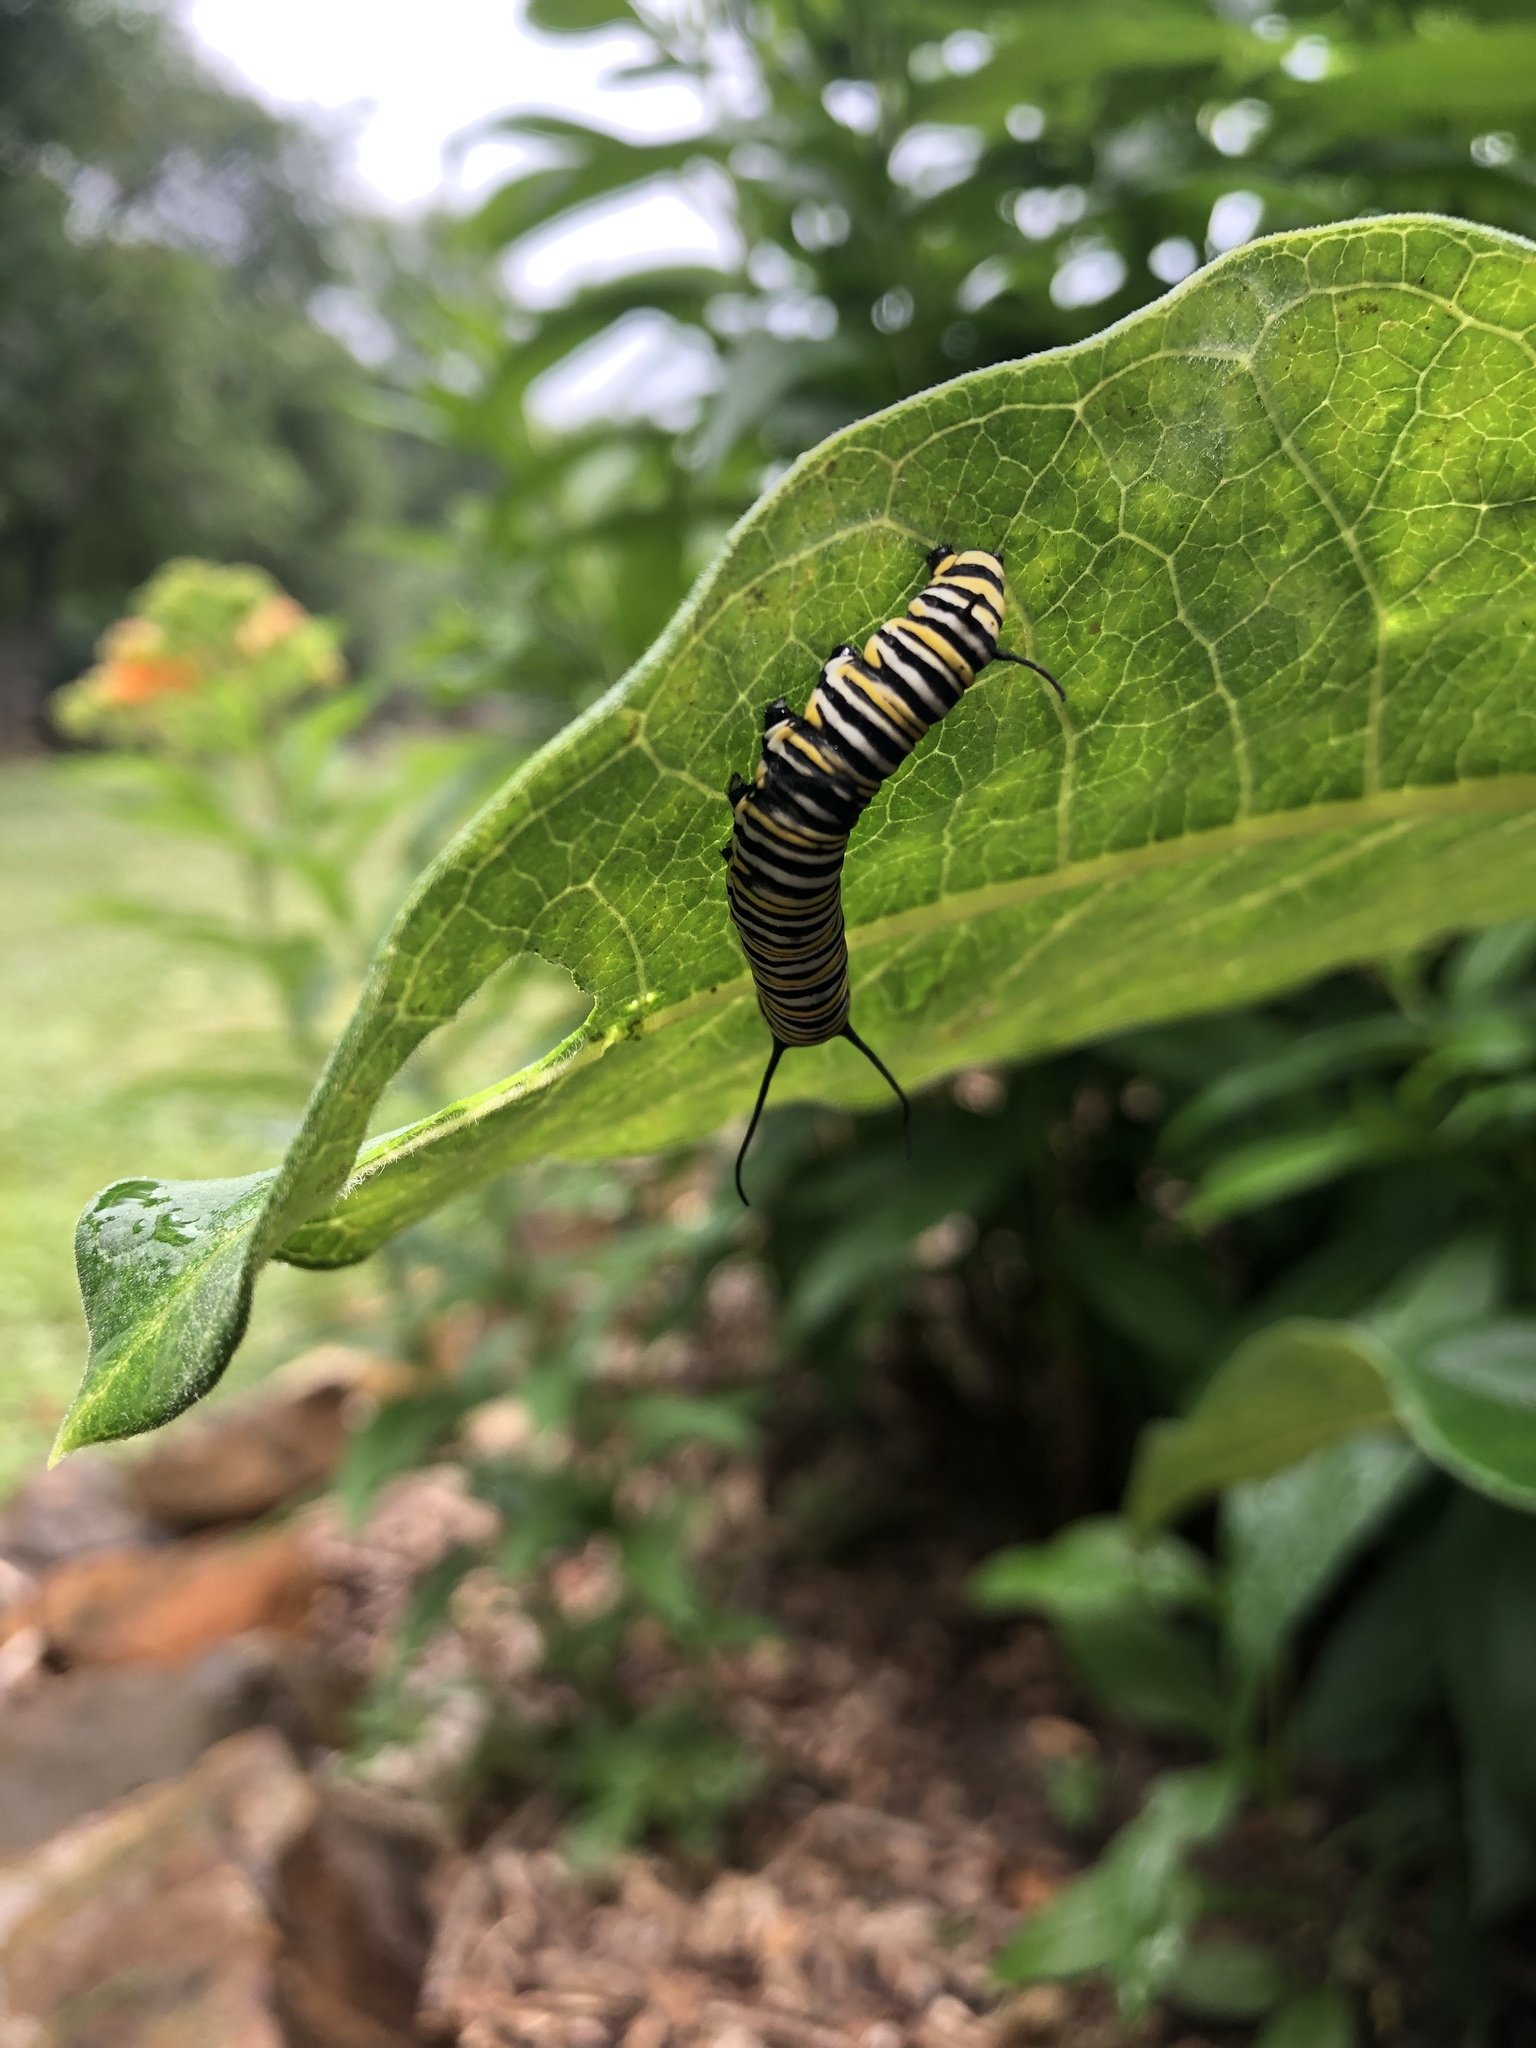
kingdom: Animalia
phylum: Arthropoda
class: Insecta
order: Lepidoptera
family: Nymphalidae
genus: Danaus
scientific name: Danaus plexippus
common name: Monarch
